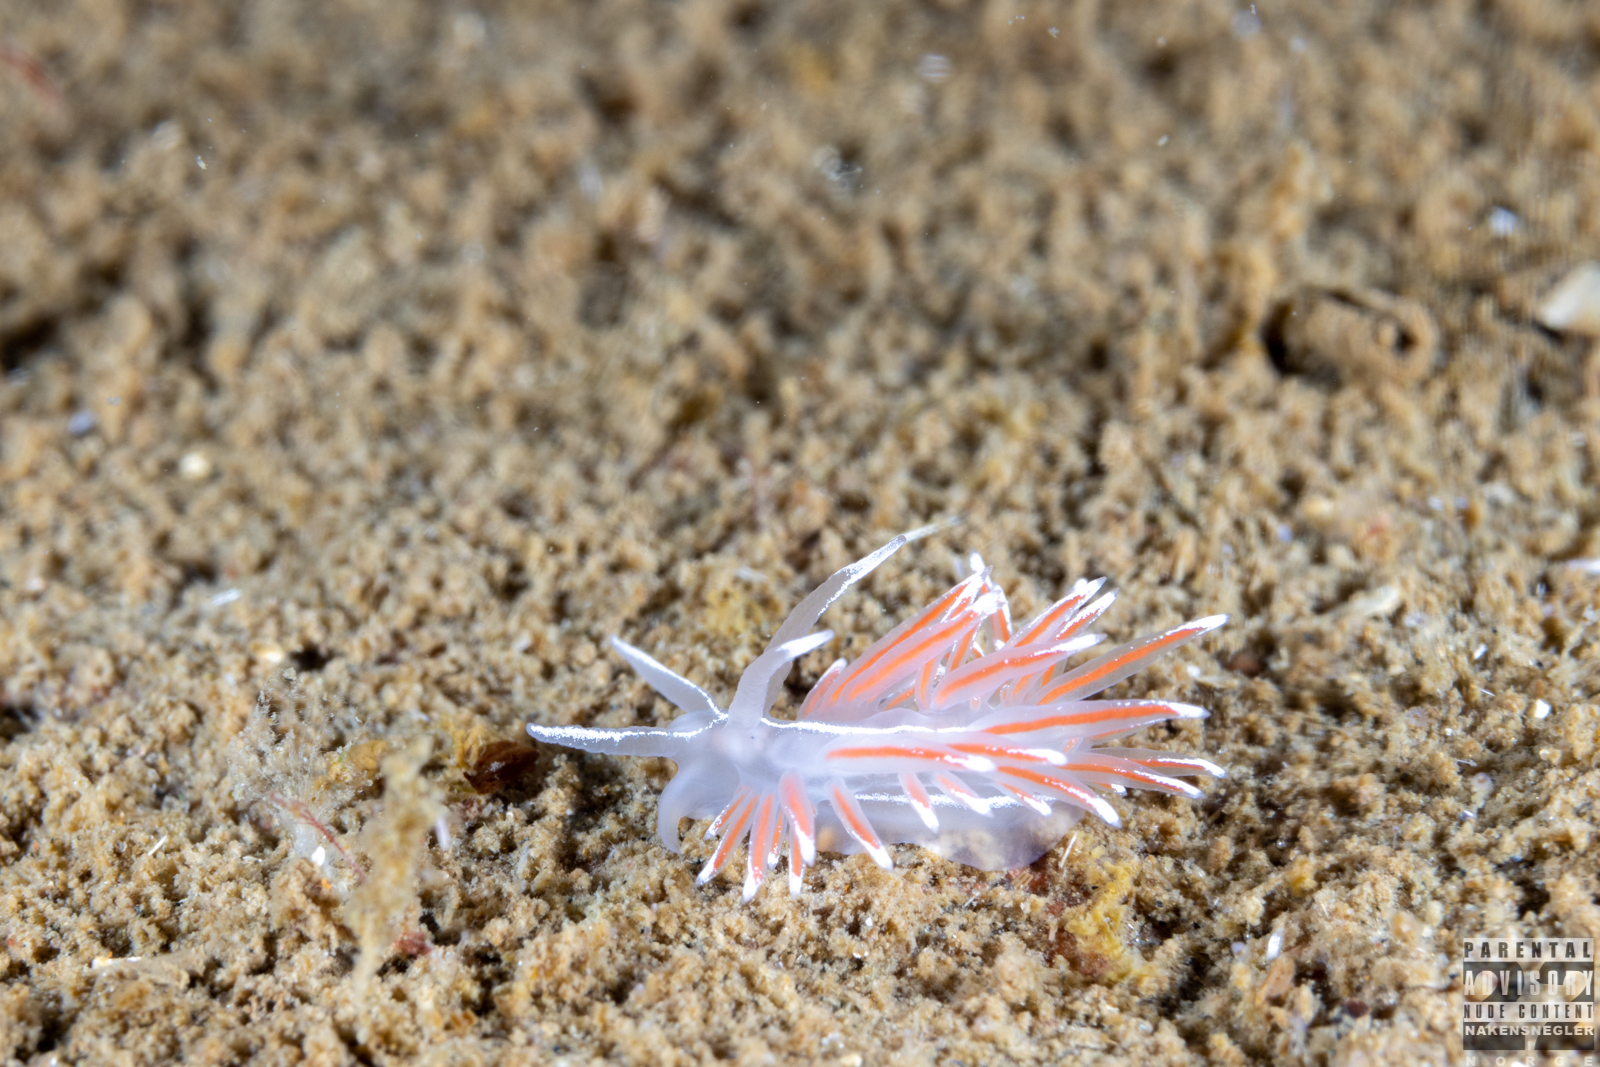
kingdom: Animalia
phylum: Mollusca
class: Gastropoda
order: Nudibranchia
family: Coryphellidae
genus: Coryphella
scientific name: Coryphella lineata
